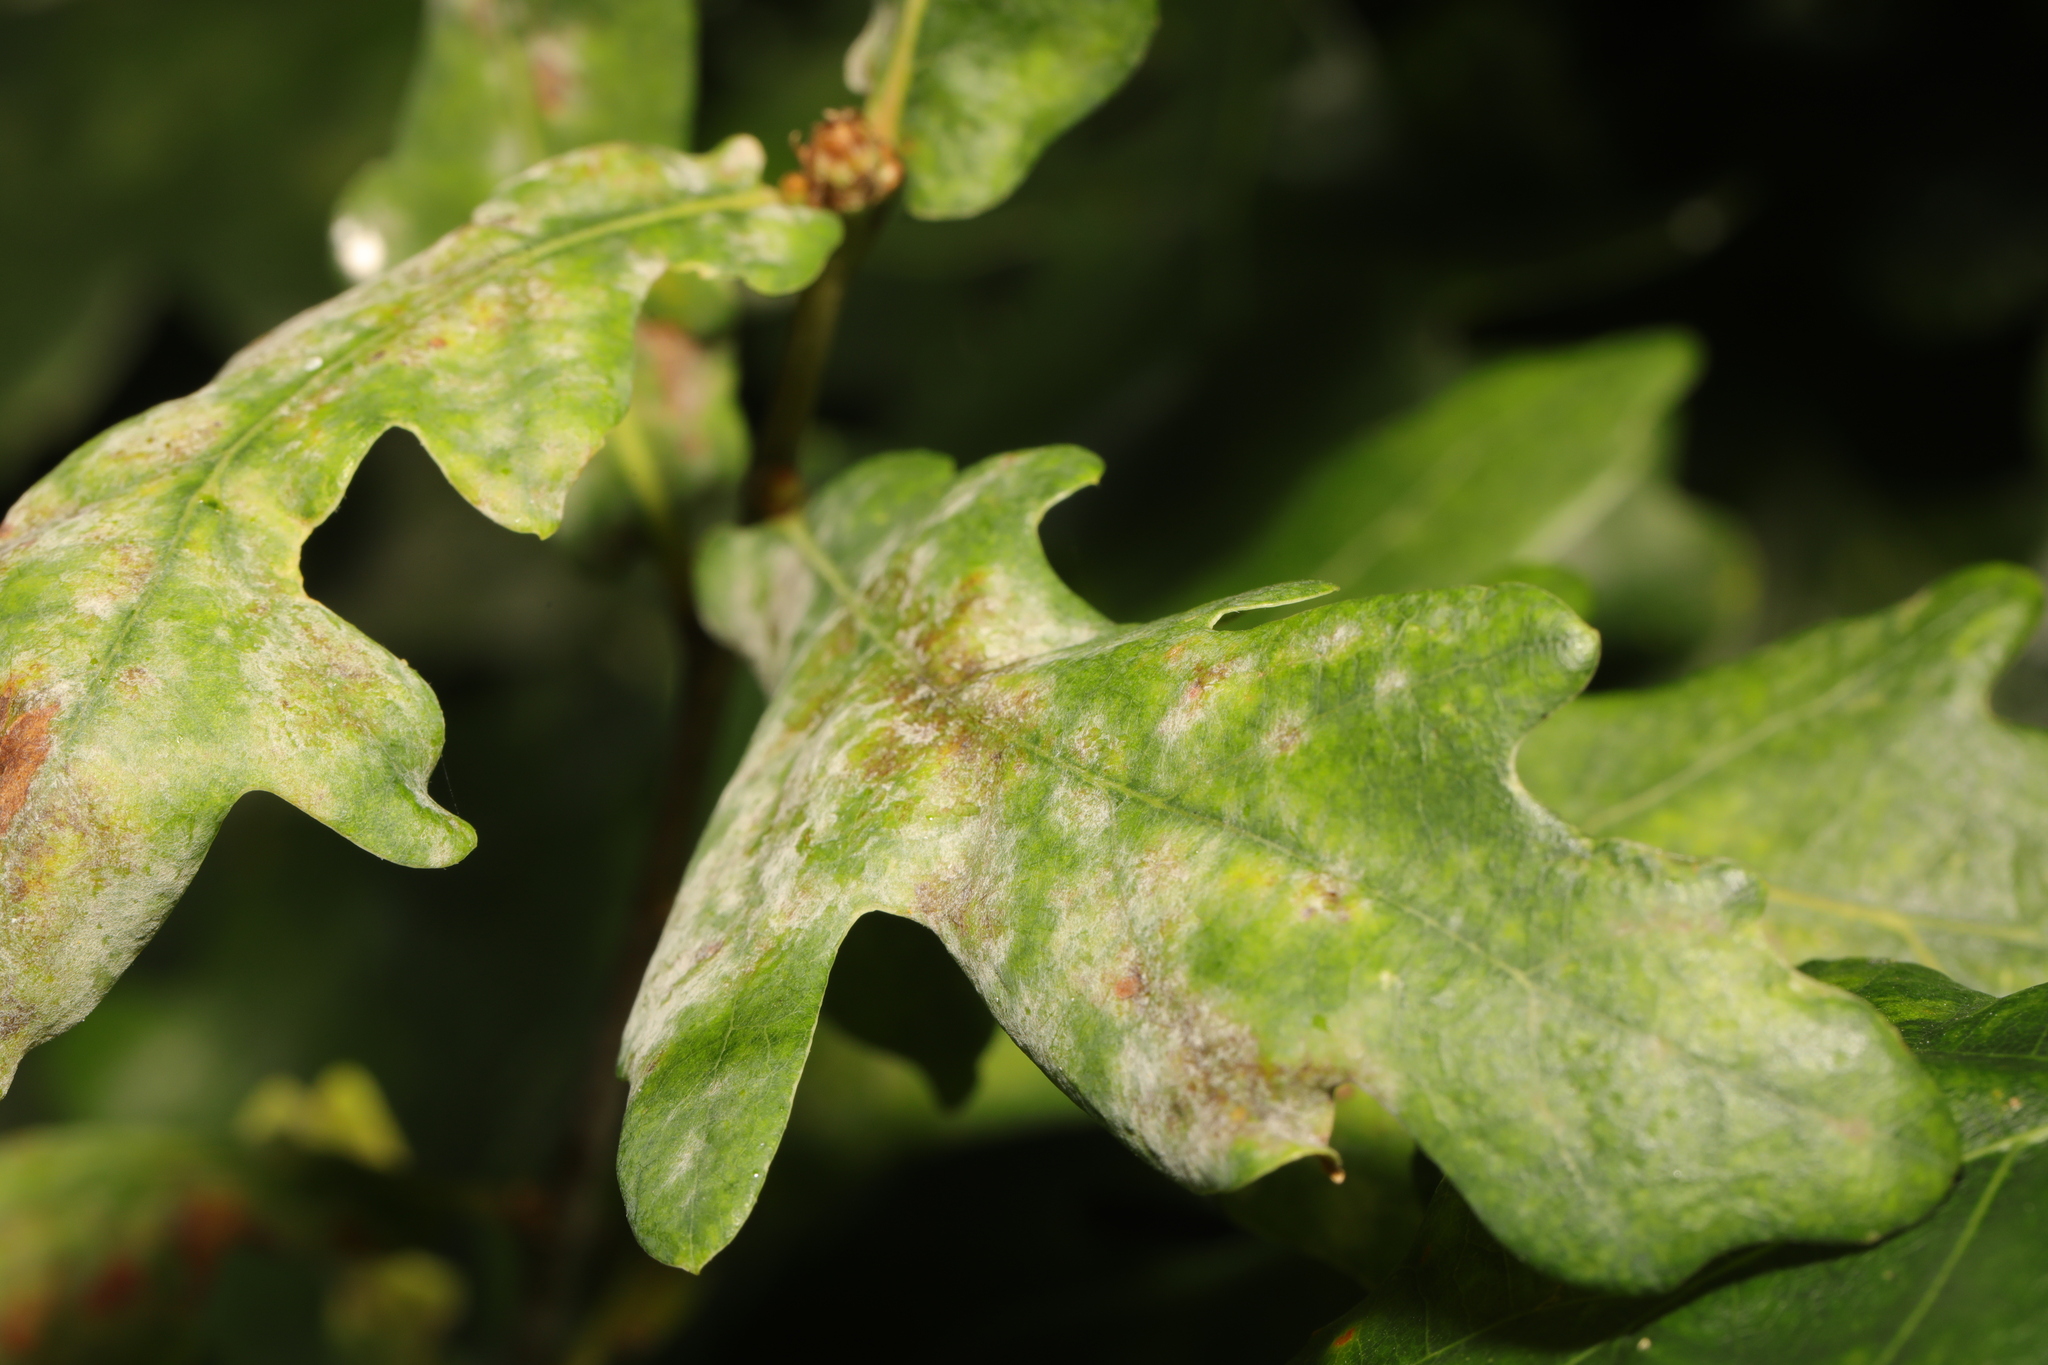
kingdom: Fungi
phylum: Ascomycota
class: Leotiomycetes
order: Helotiales
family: Erysiphaceae
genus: Erysiphe
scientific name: Erysiphe alphitoides
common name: Oak mildew
